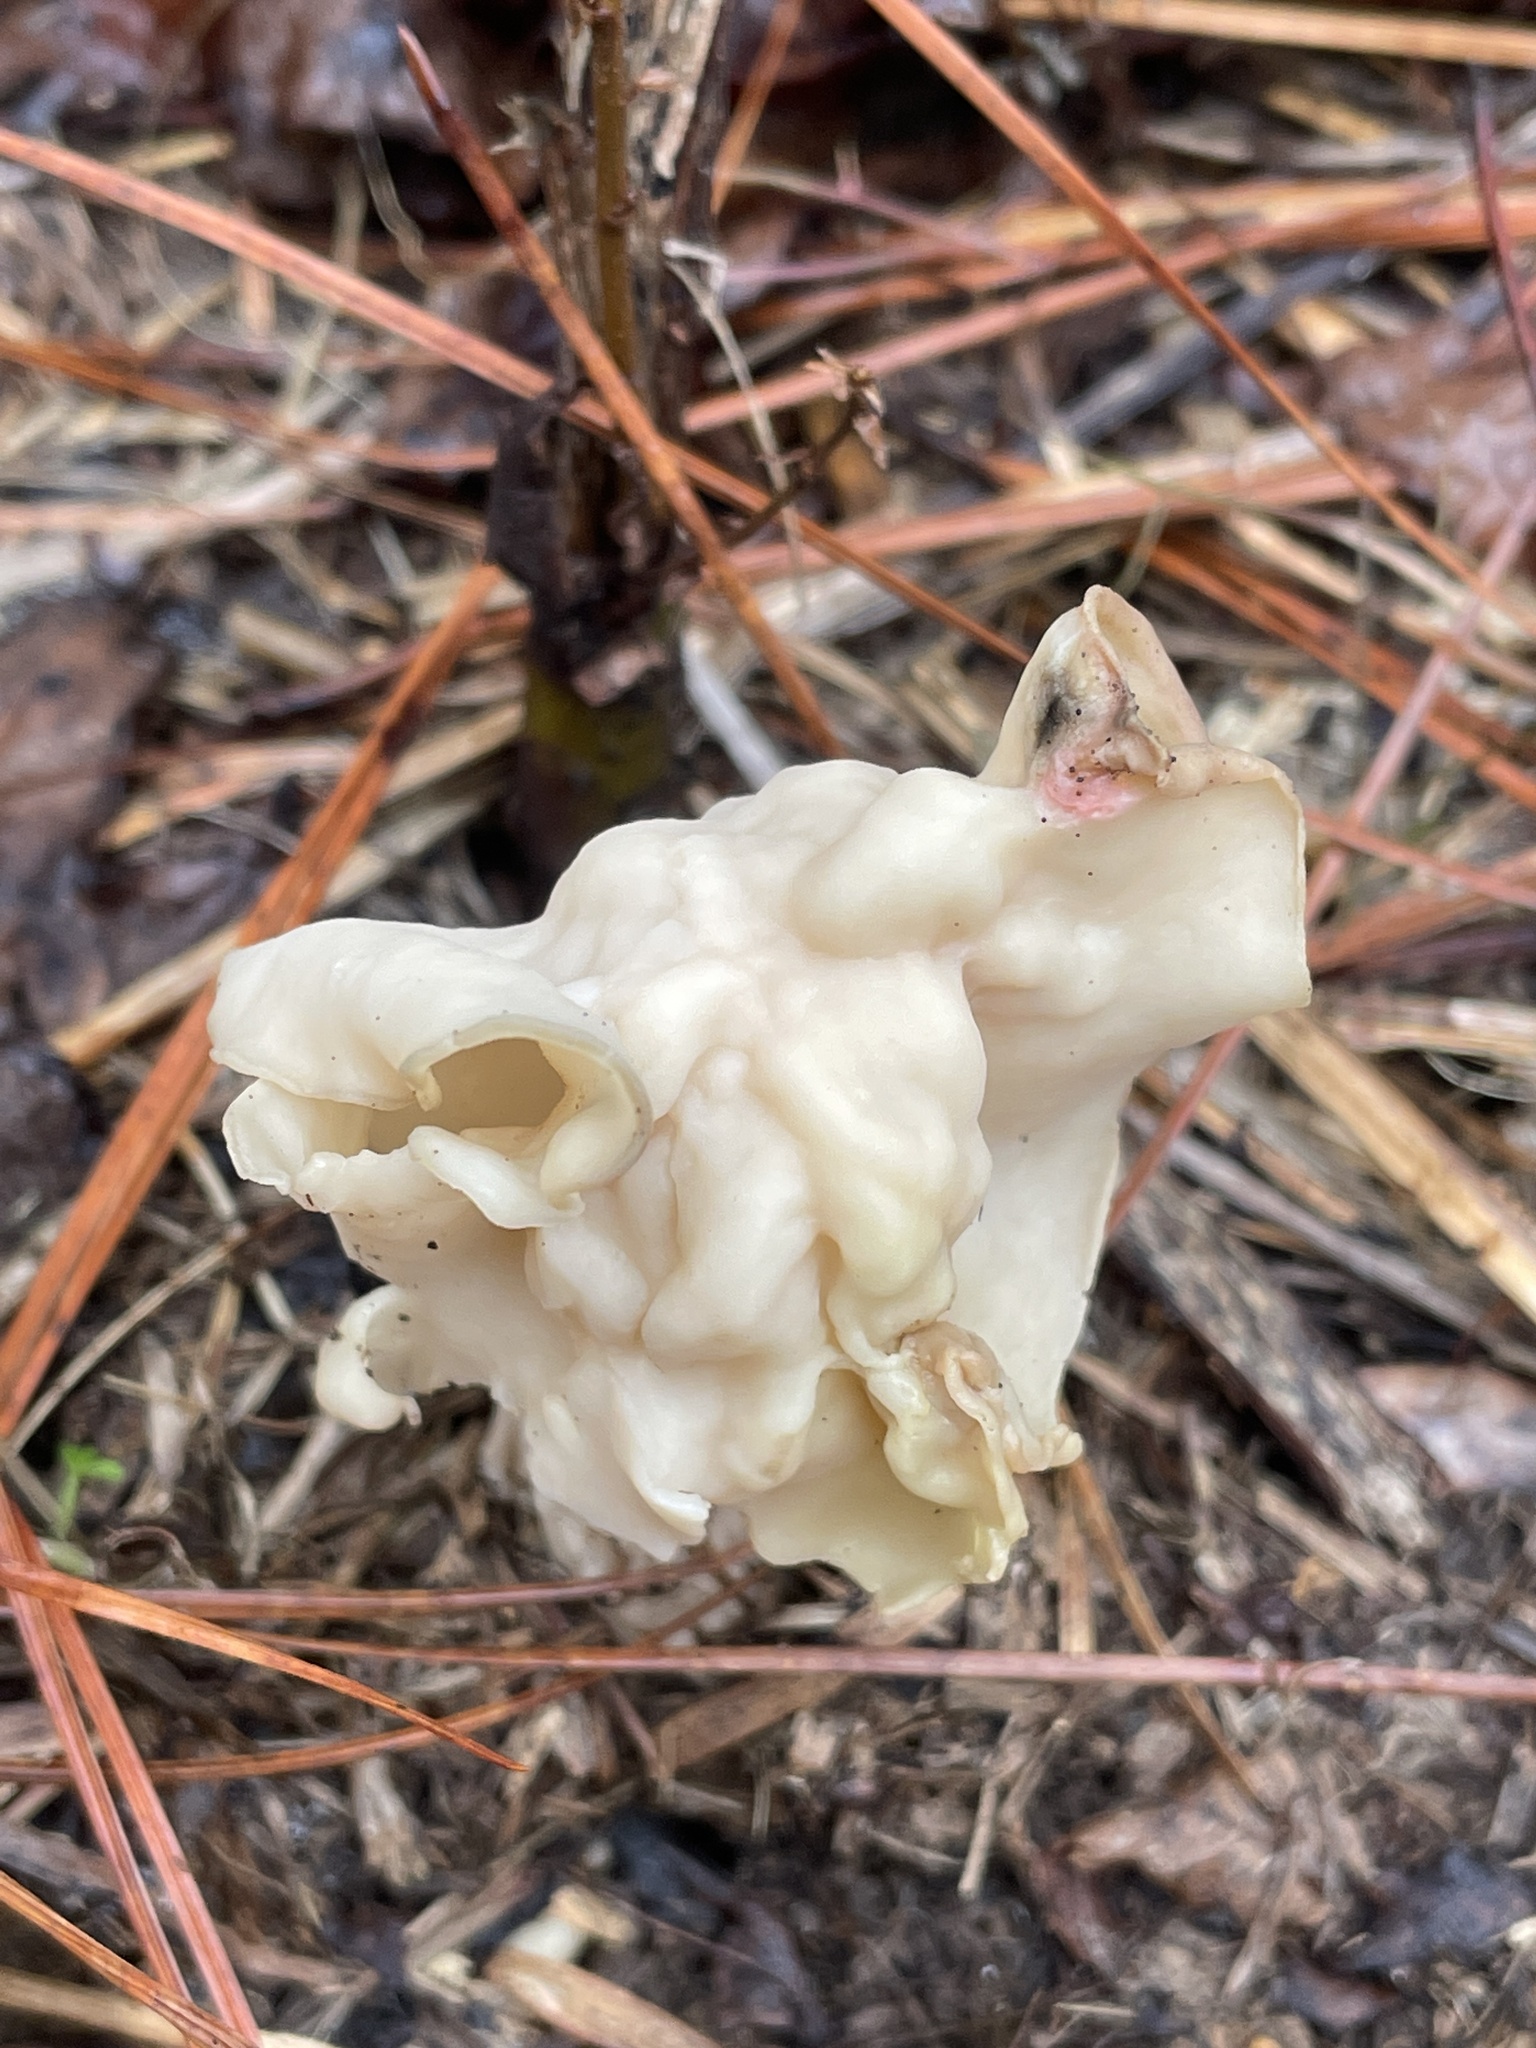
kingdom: Fungi
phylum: Ascomycota
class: Pezizomycetes
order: Pezizales
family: Helvellaceae
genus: Helvella
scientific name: Helvella crispa
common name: White saddle
